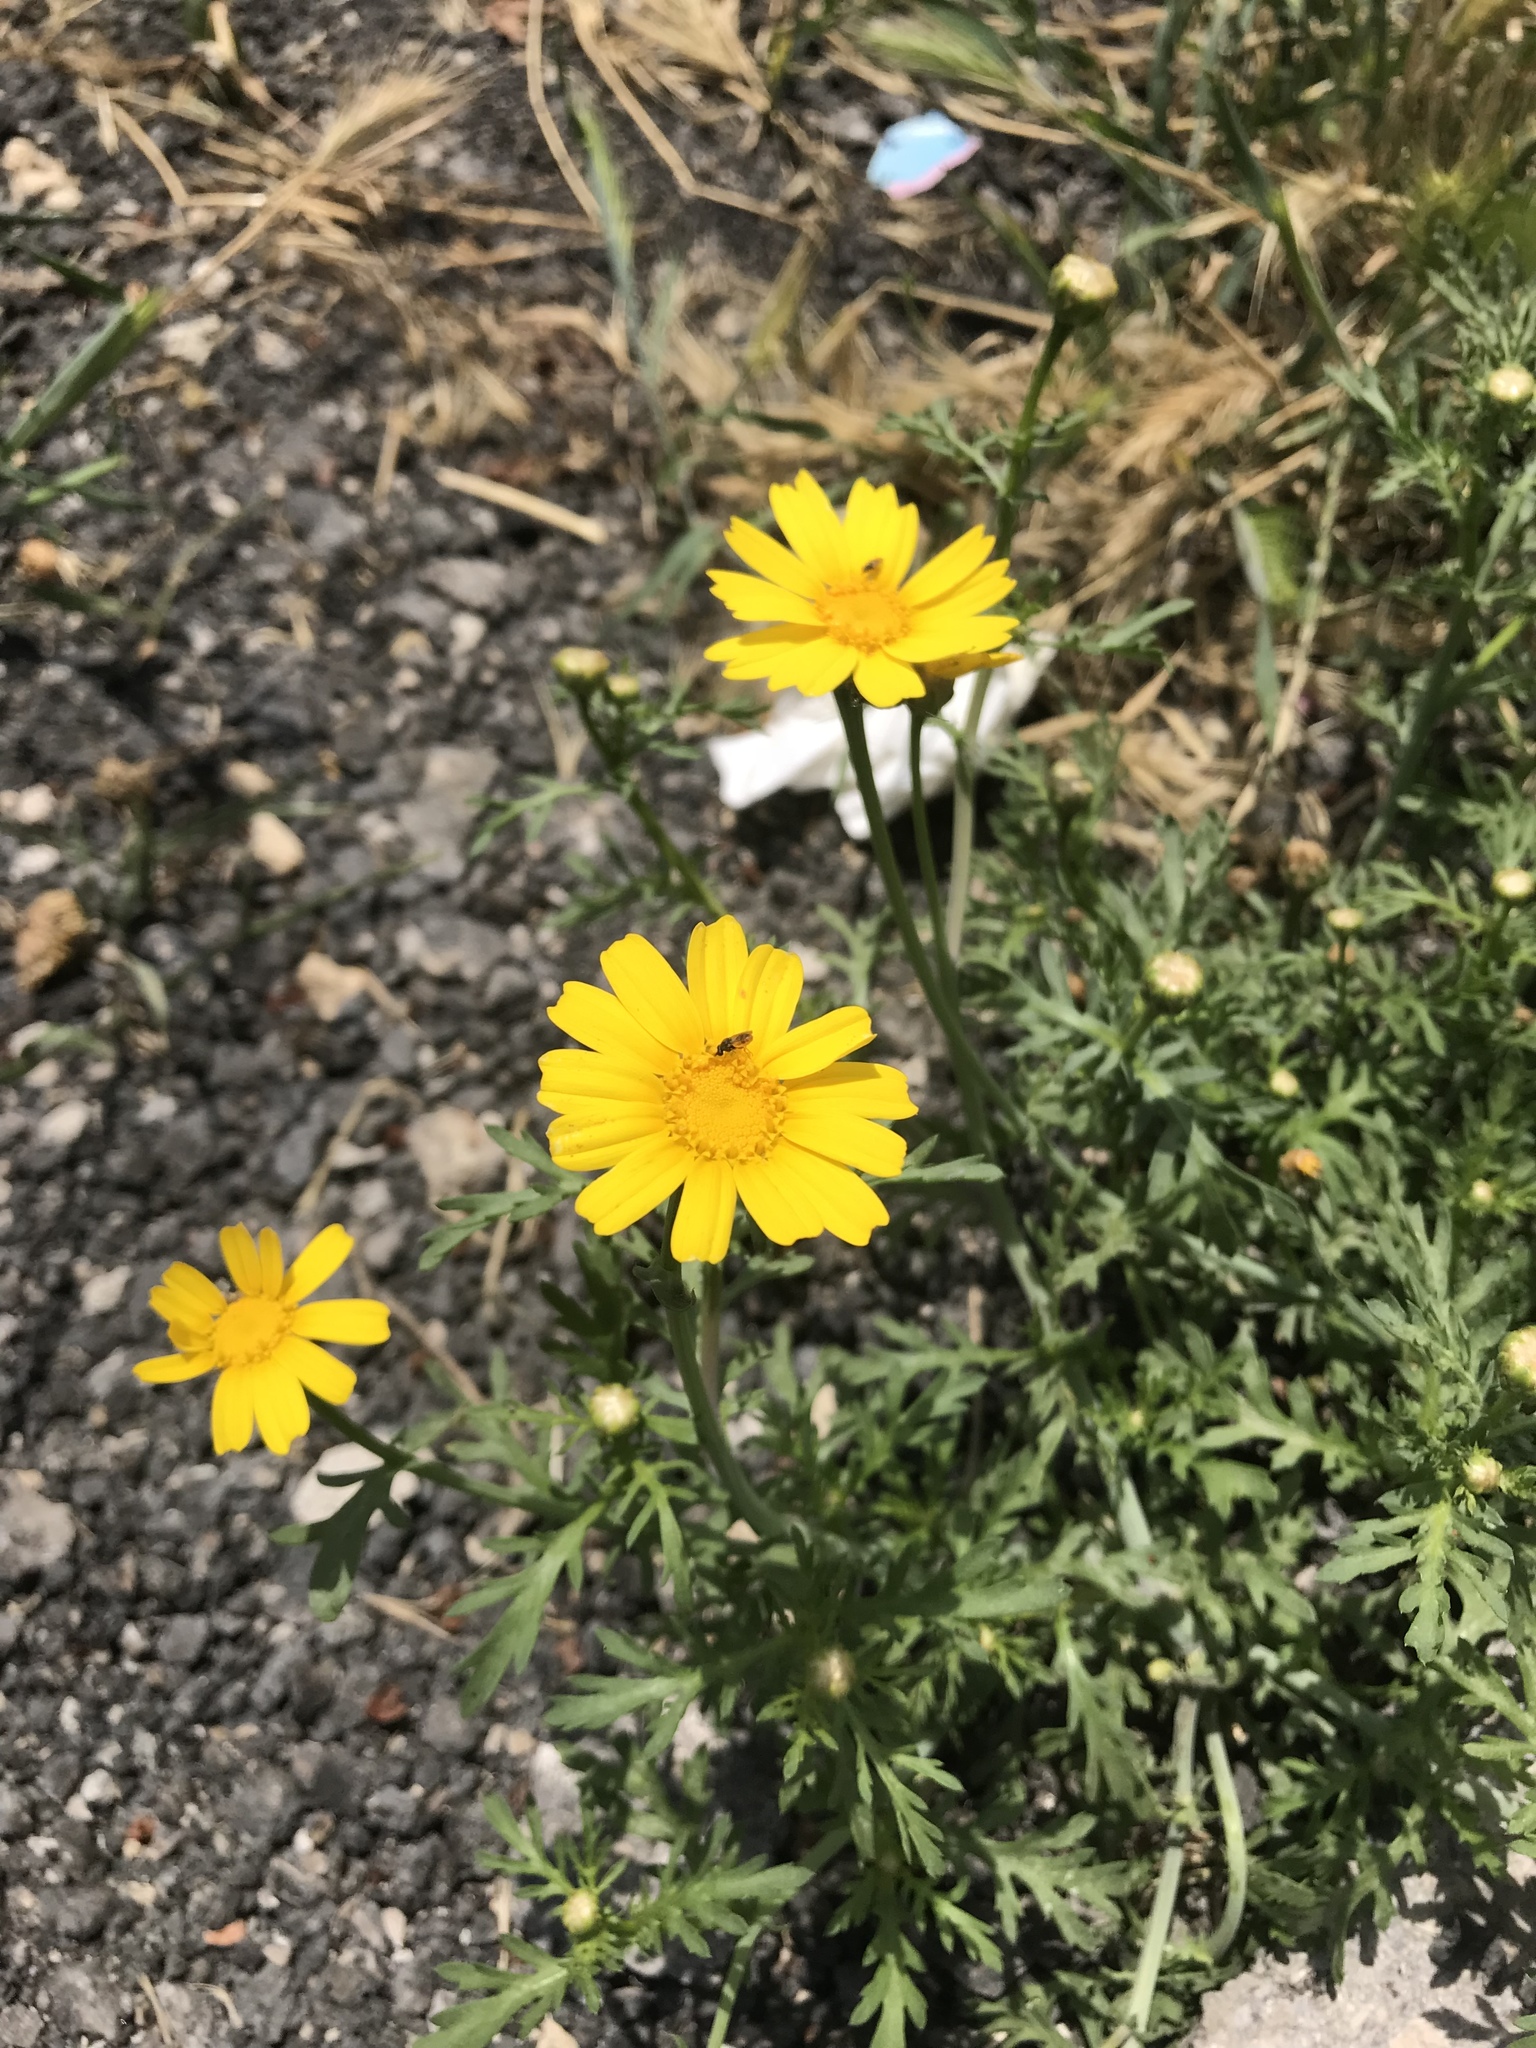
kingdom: Plantae
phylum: Tracheophyta
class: Magnoliopsida
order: Asterales
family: Asteraceae
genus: Glebionis
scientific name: Glebionis coronaria
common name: Crowndaisy
